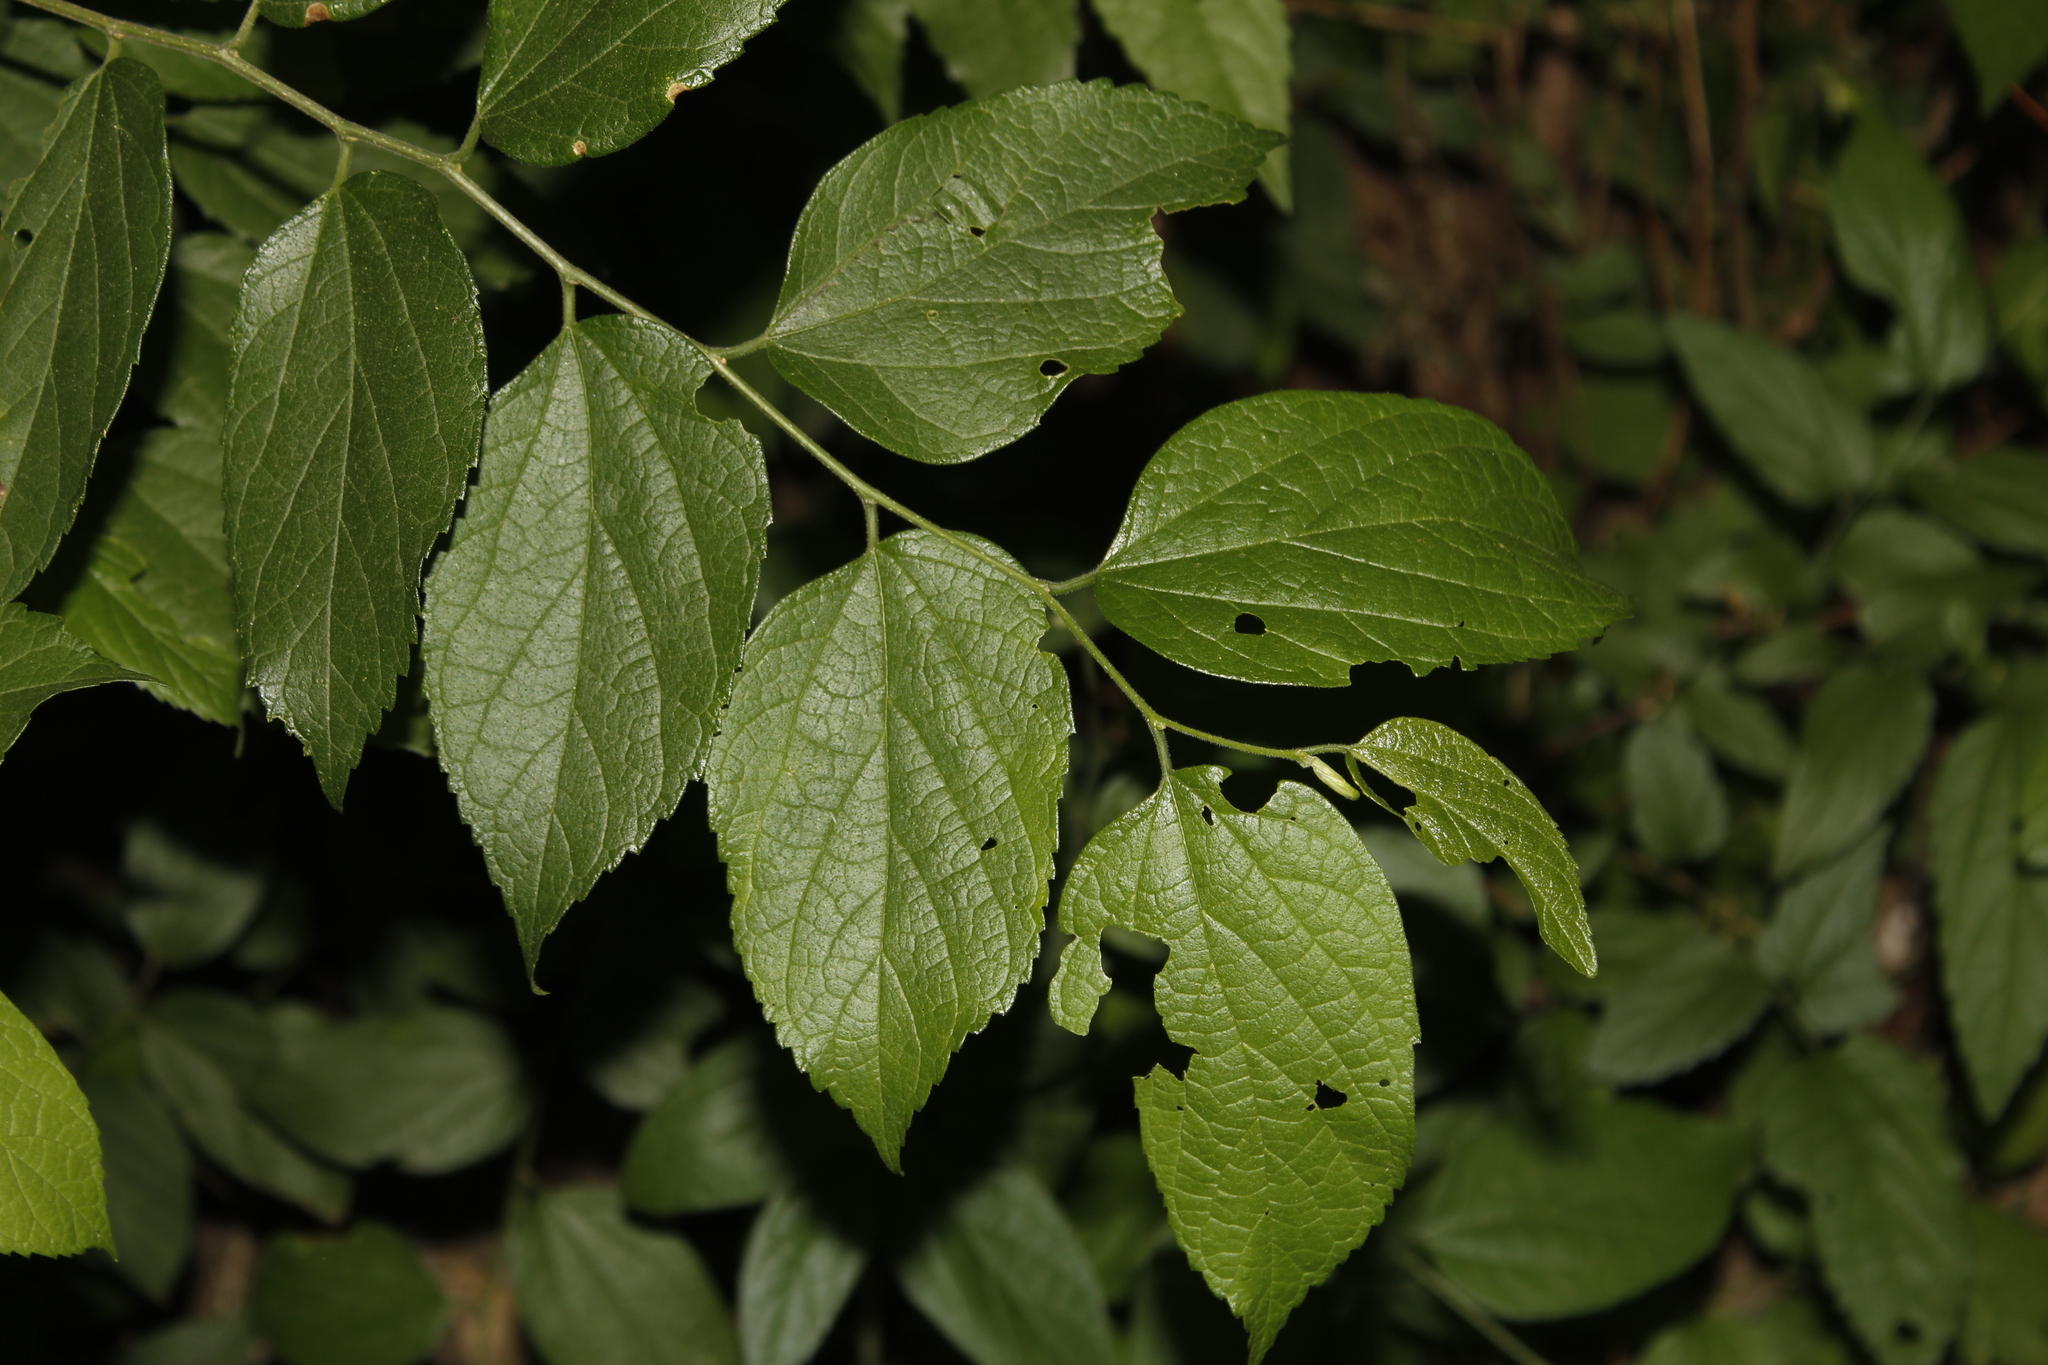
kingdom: Plantae
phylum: Tracheophyta
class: Magnoliopsida
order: Rosales
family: Cannabaceae
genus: Celtis
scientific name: Celtis reticulata
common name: Netleaf hackberry
